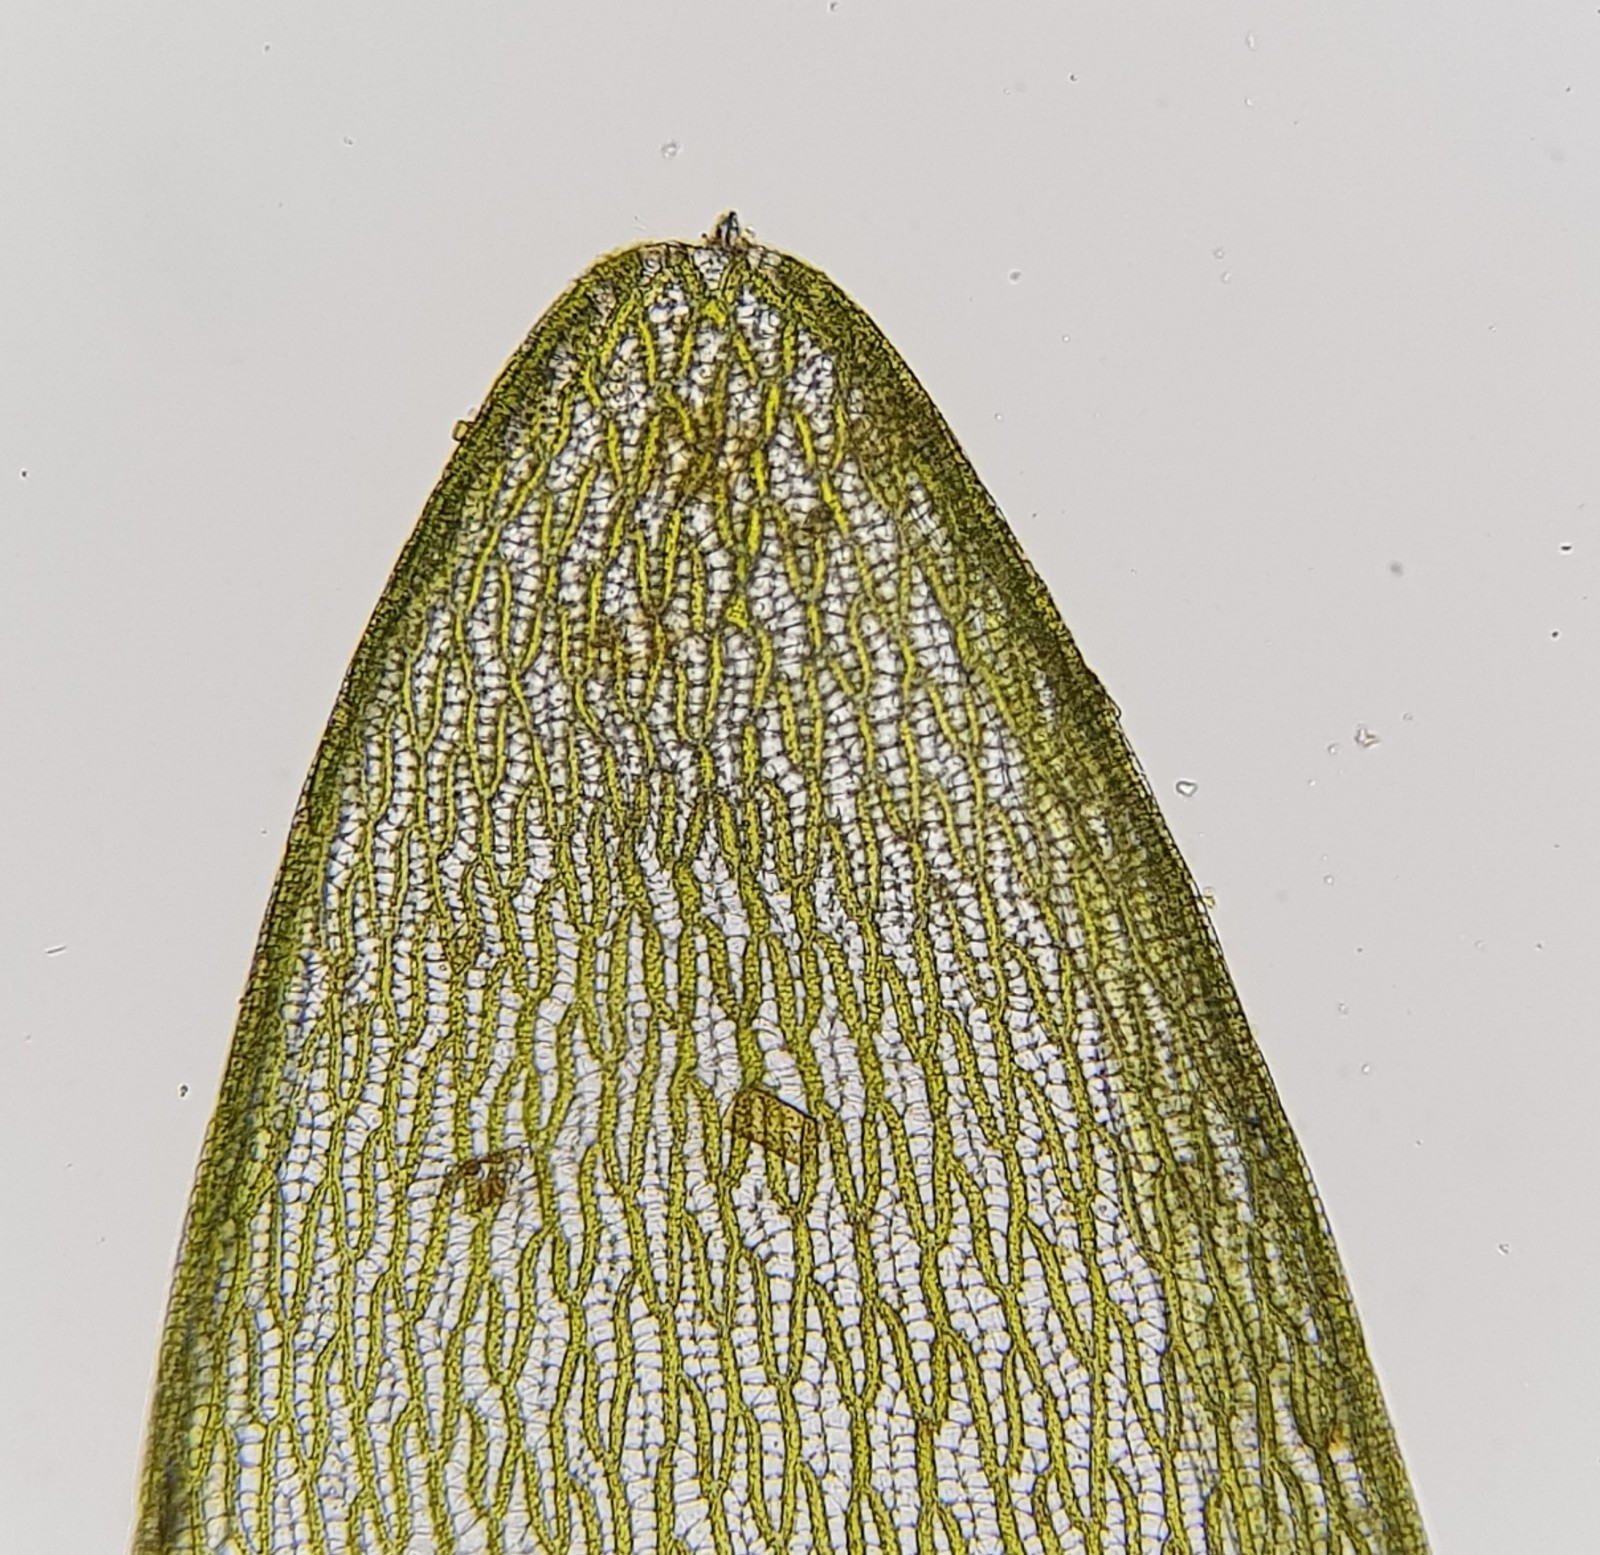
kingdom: Plantae
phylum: Bryophyta
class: Sphagnopsida
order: Sphagnales
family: Sphagnaceae
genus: Sphagnum
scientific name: Sphagnum denticulatum
